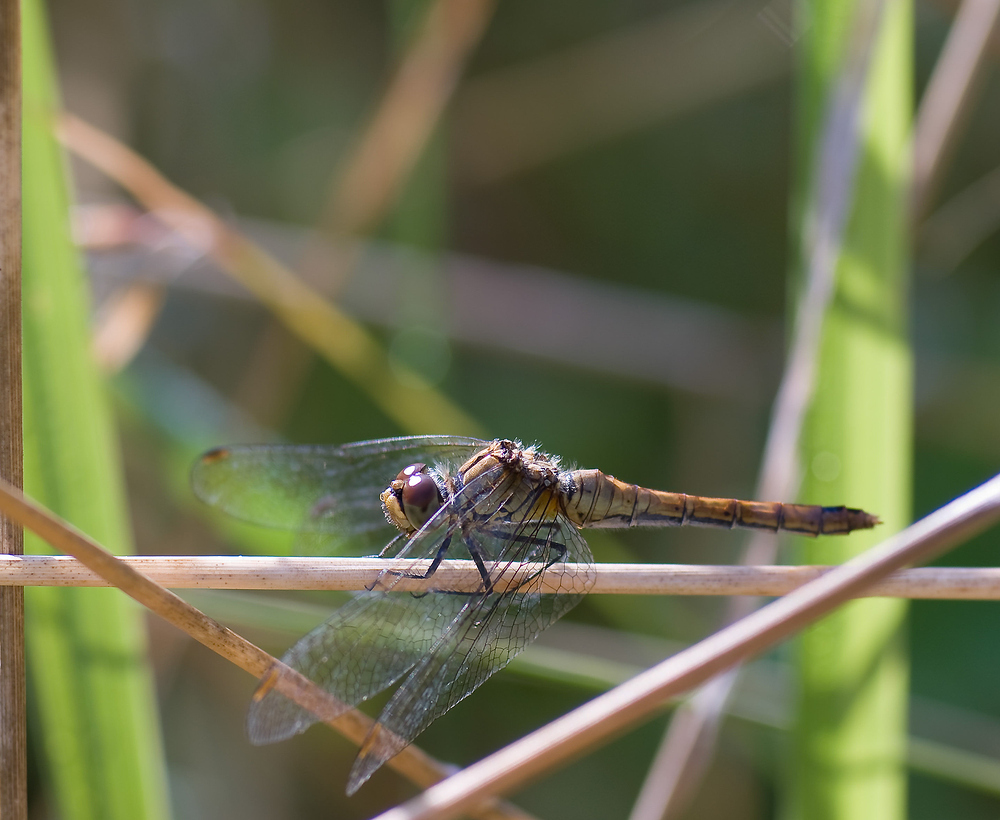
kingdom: Animalia
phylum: Arthropoda
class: Insecta
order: Odonata
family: Libellulidae
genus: Sympetrum
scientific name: Sympetrum sanguineum
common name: Ruddy darter
